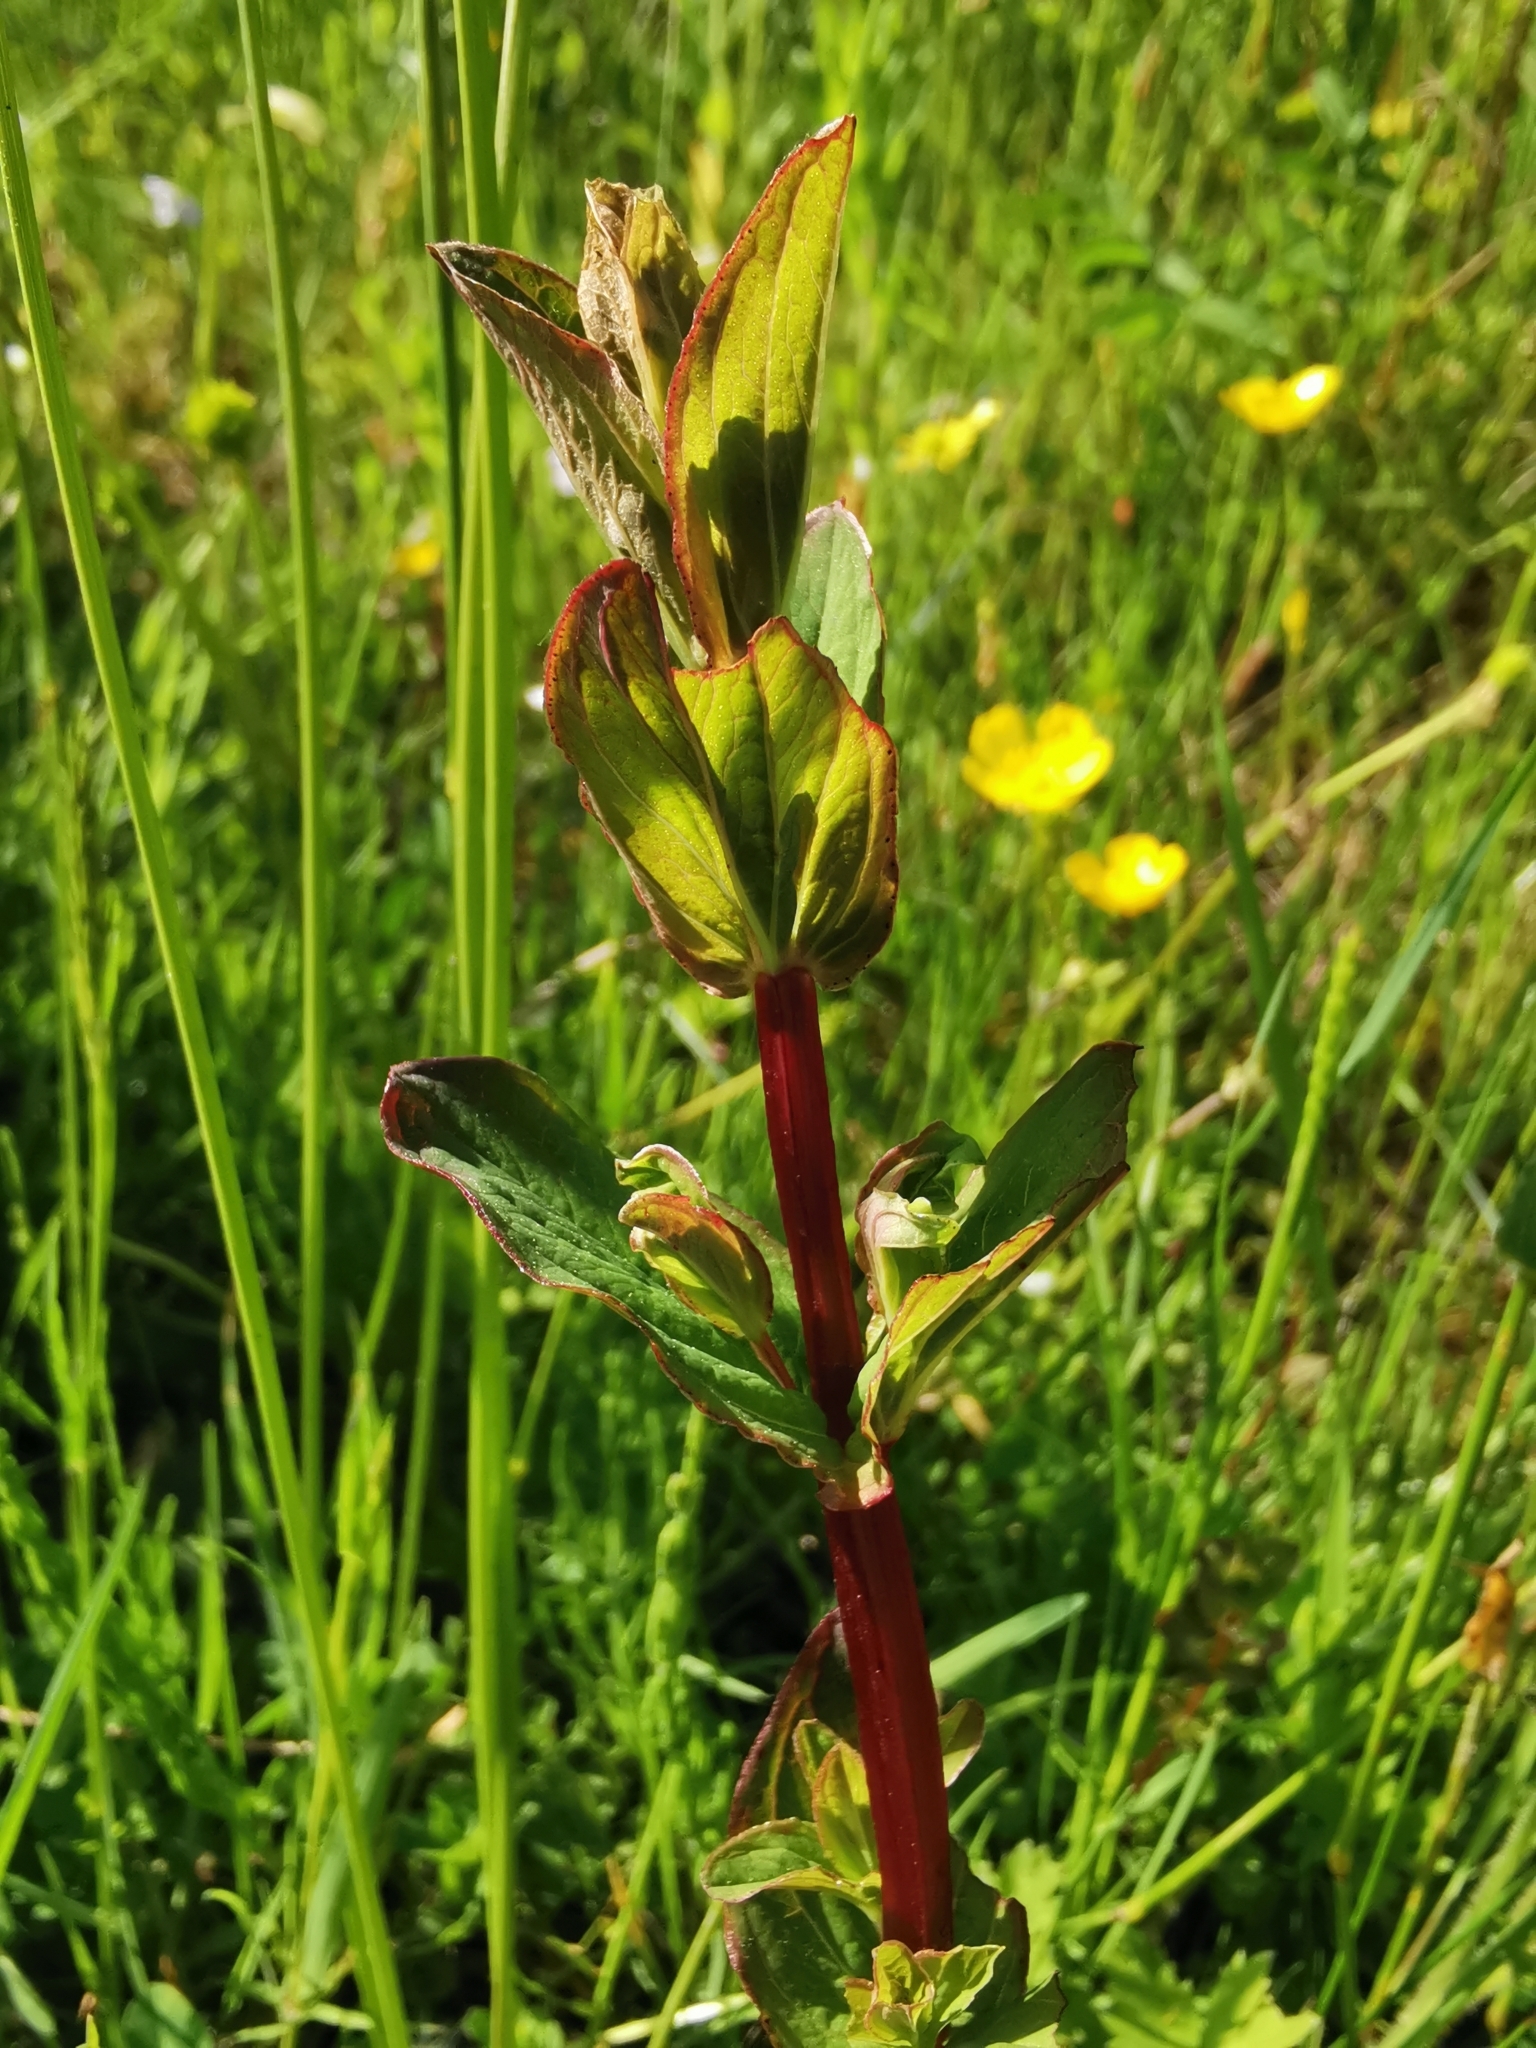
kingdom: Plantae
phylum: Tracheophyta
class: Magnoliopsida
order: Malpighiales
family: Hypericaceae
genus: Hypericum
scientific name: Hypericum tetrapterum
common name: Square-stalked st. john's-wort
